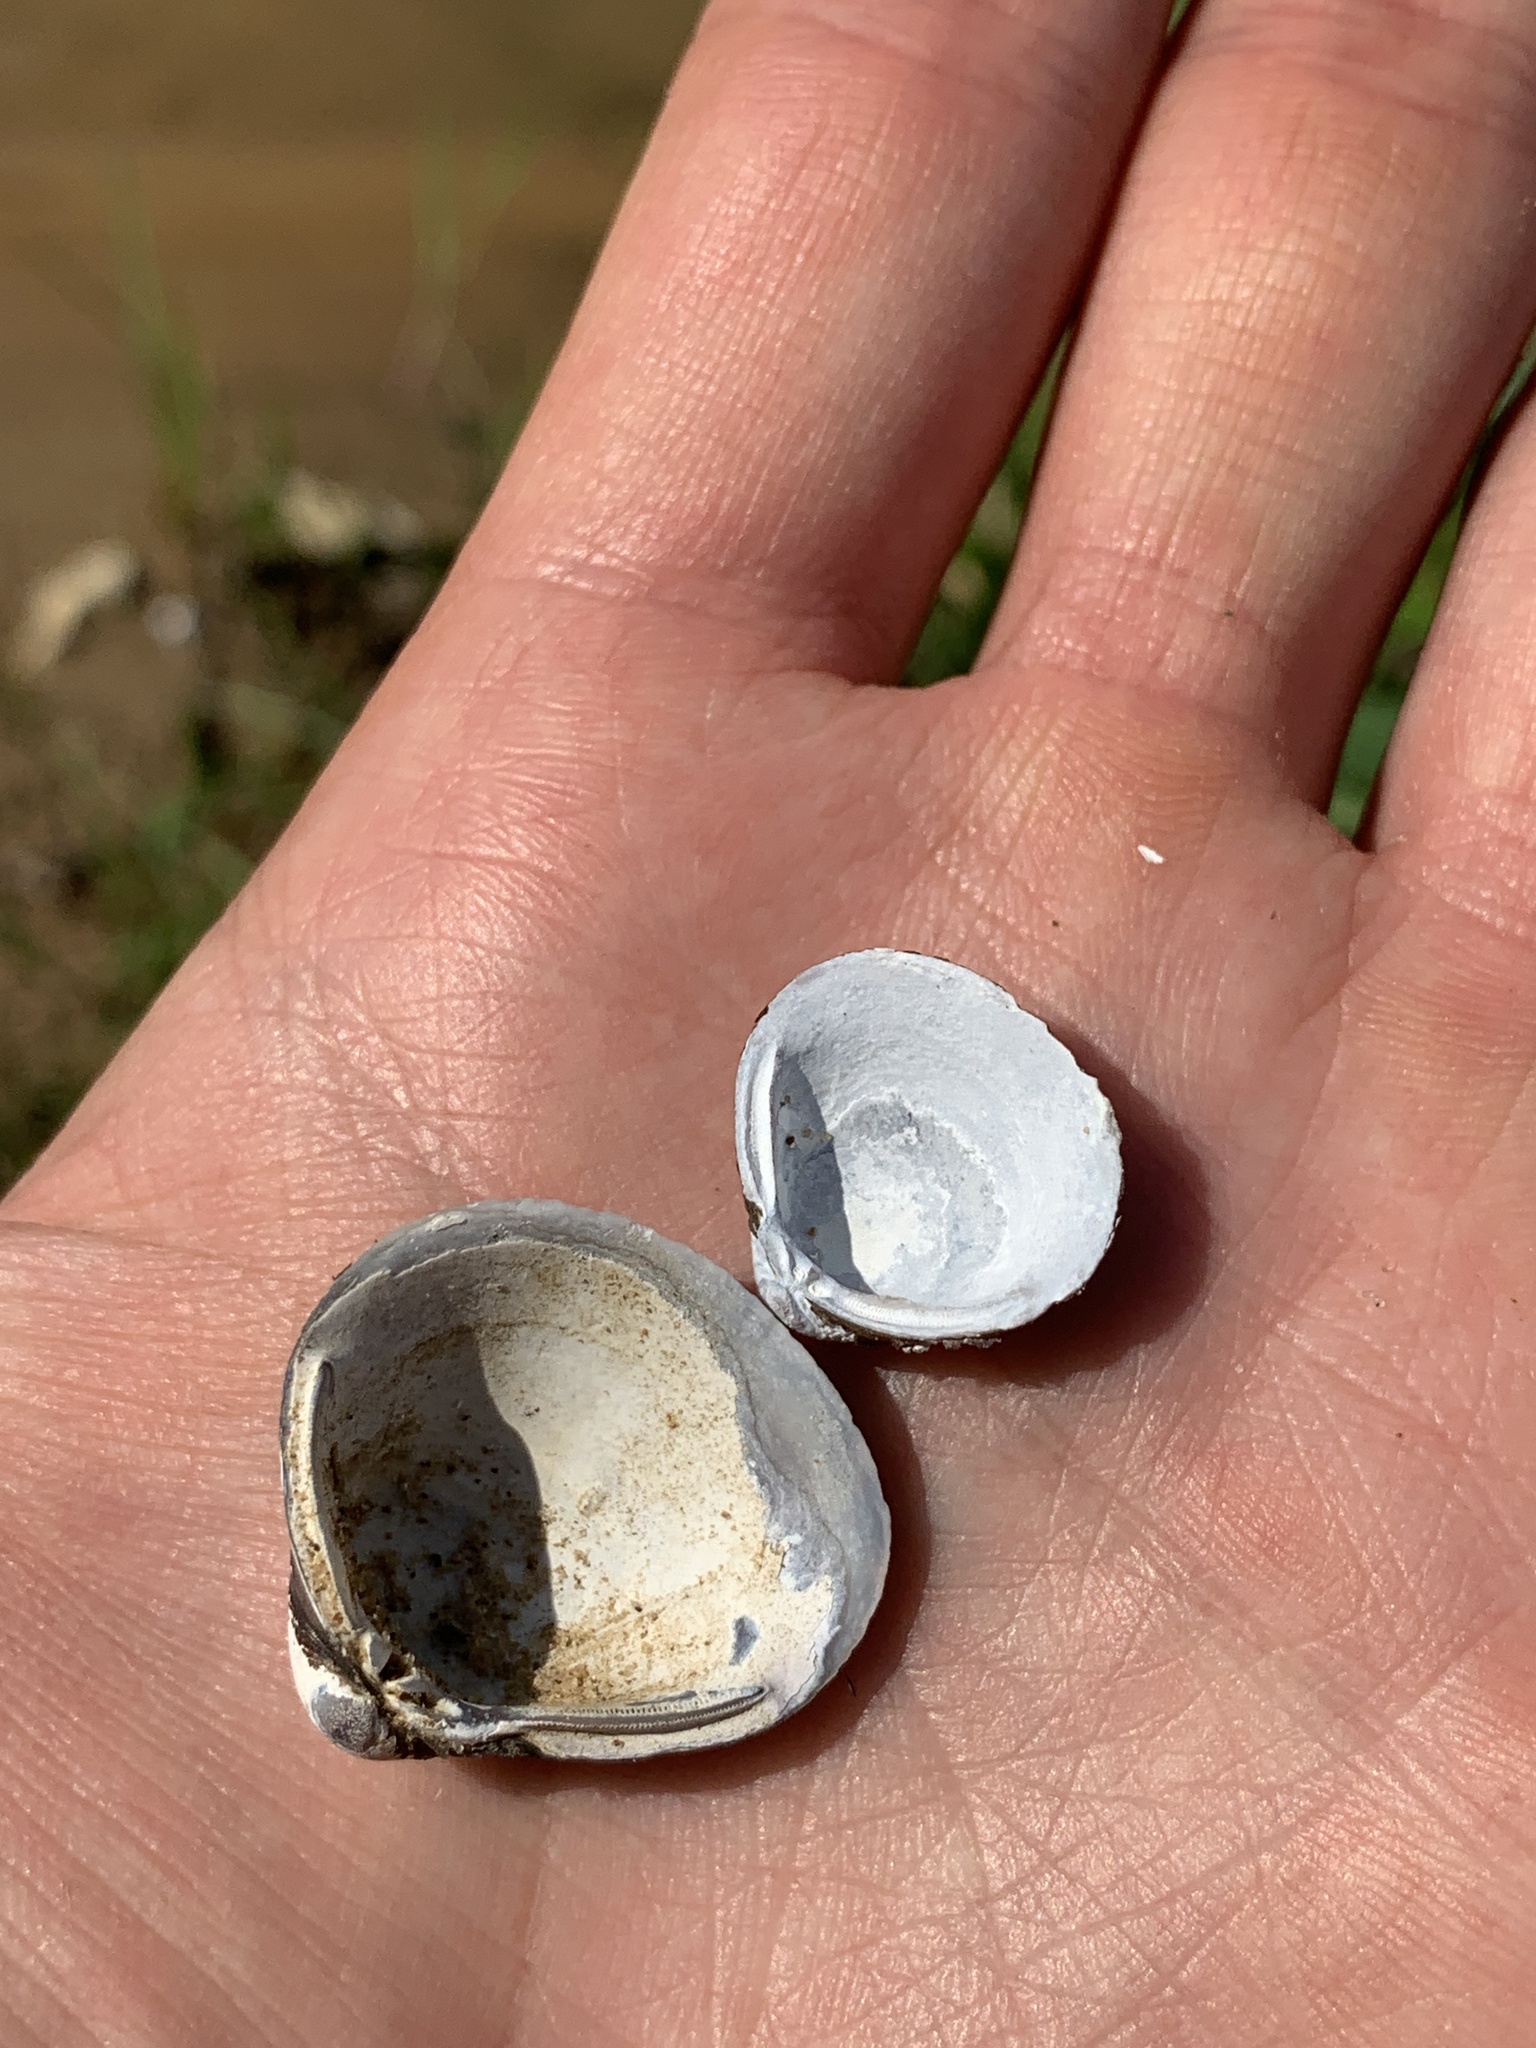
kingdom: Animalia
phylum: Mollusca
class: Bivalvia
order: Venerida
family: Cyrenidae
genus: Corbicula
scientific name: Corbicula fluminea
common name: Asian clam
